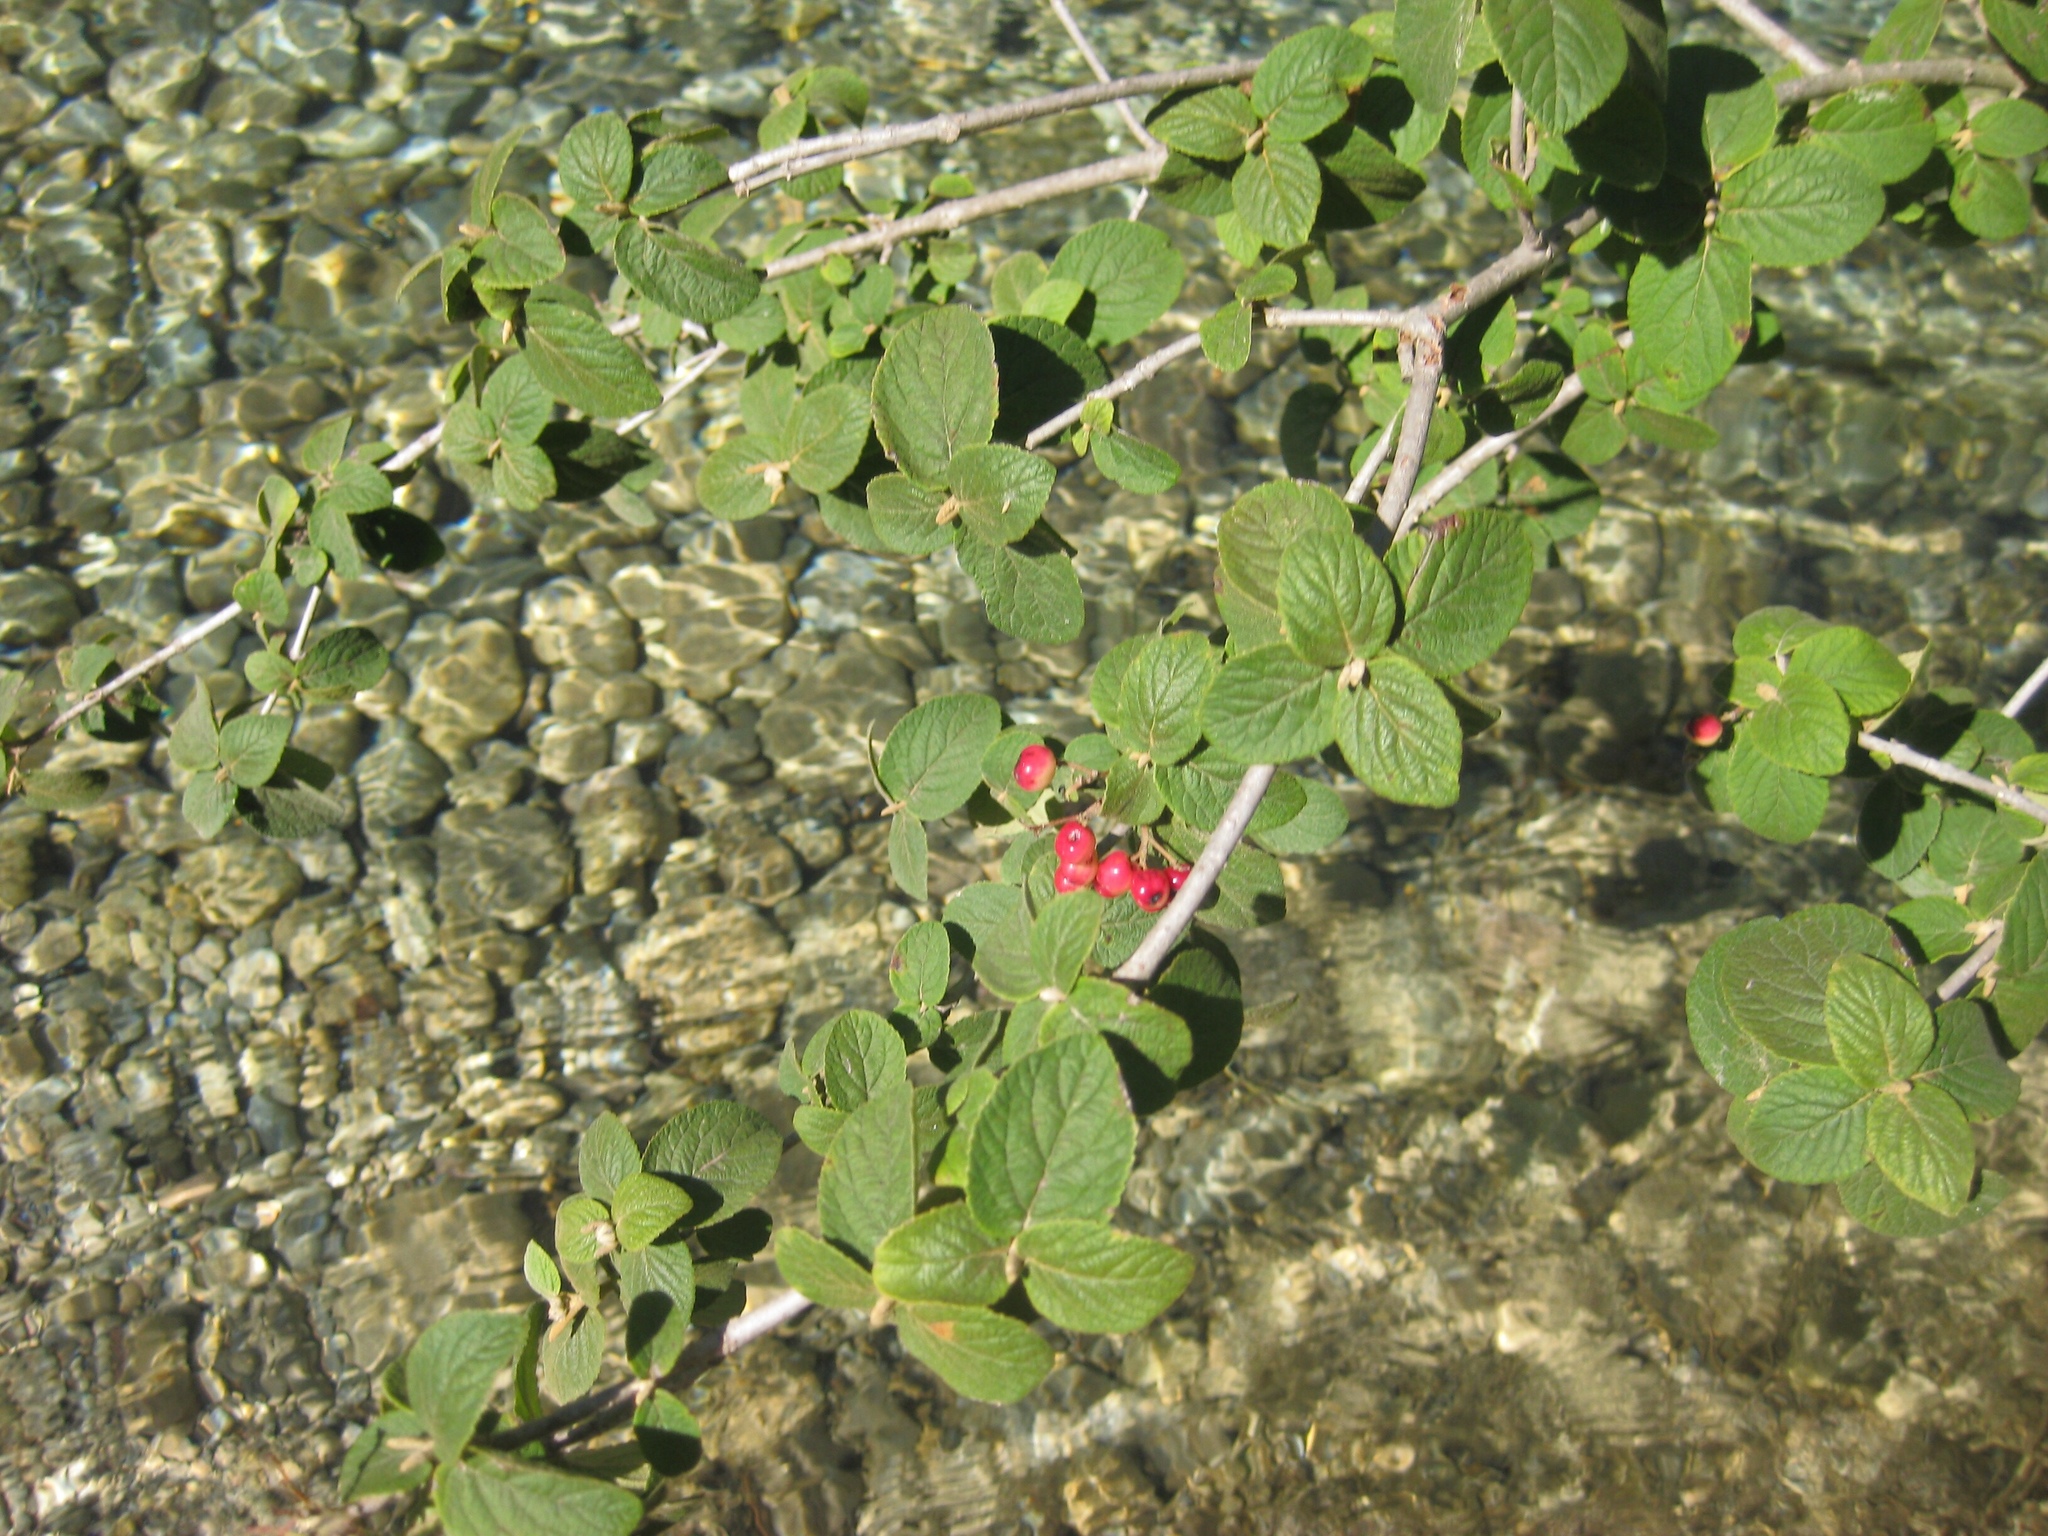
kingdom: Plantae
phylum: Tracheophyta
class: Magnoliopsida
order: Dipsacales
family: Viburnaceae
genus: Viburnum
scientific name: Viburnum lantana
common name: Wayfaring tree
